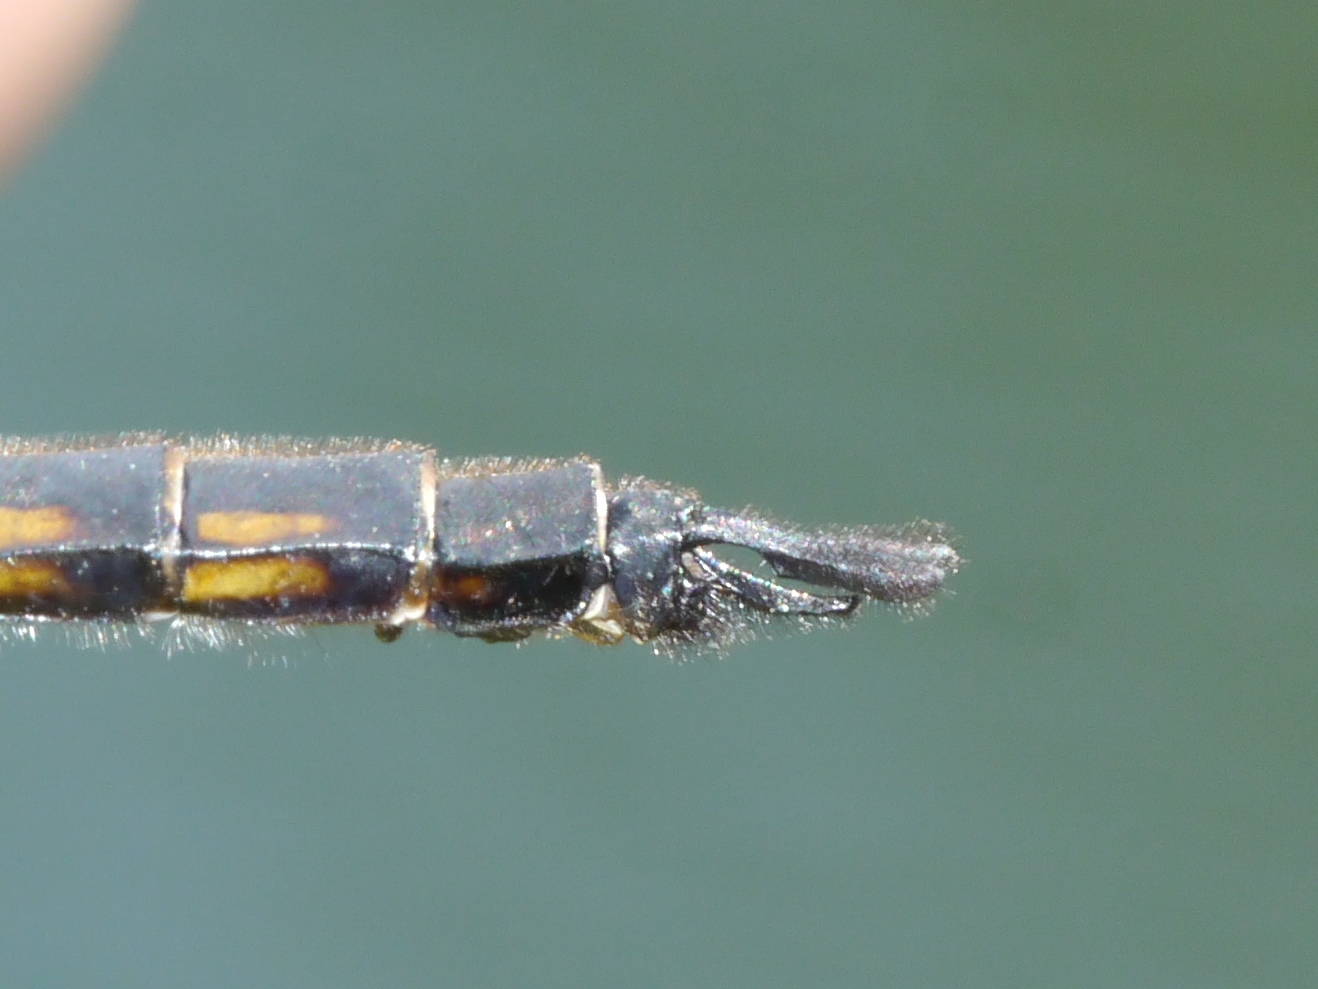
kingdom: Animalia
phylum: Arthropoda
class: Insecta
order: Odonata
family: Corduliidae
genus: Epitheca
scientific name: Epitheca costalis
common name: Slender baskettail
